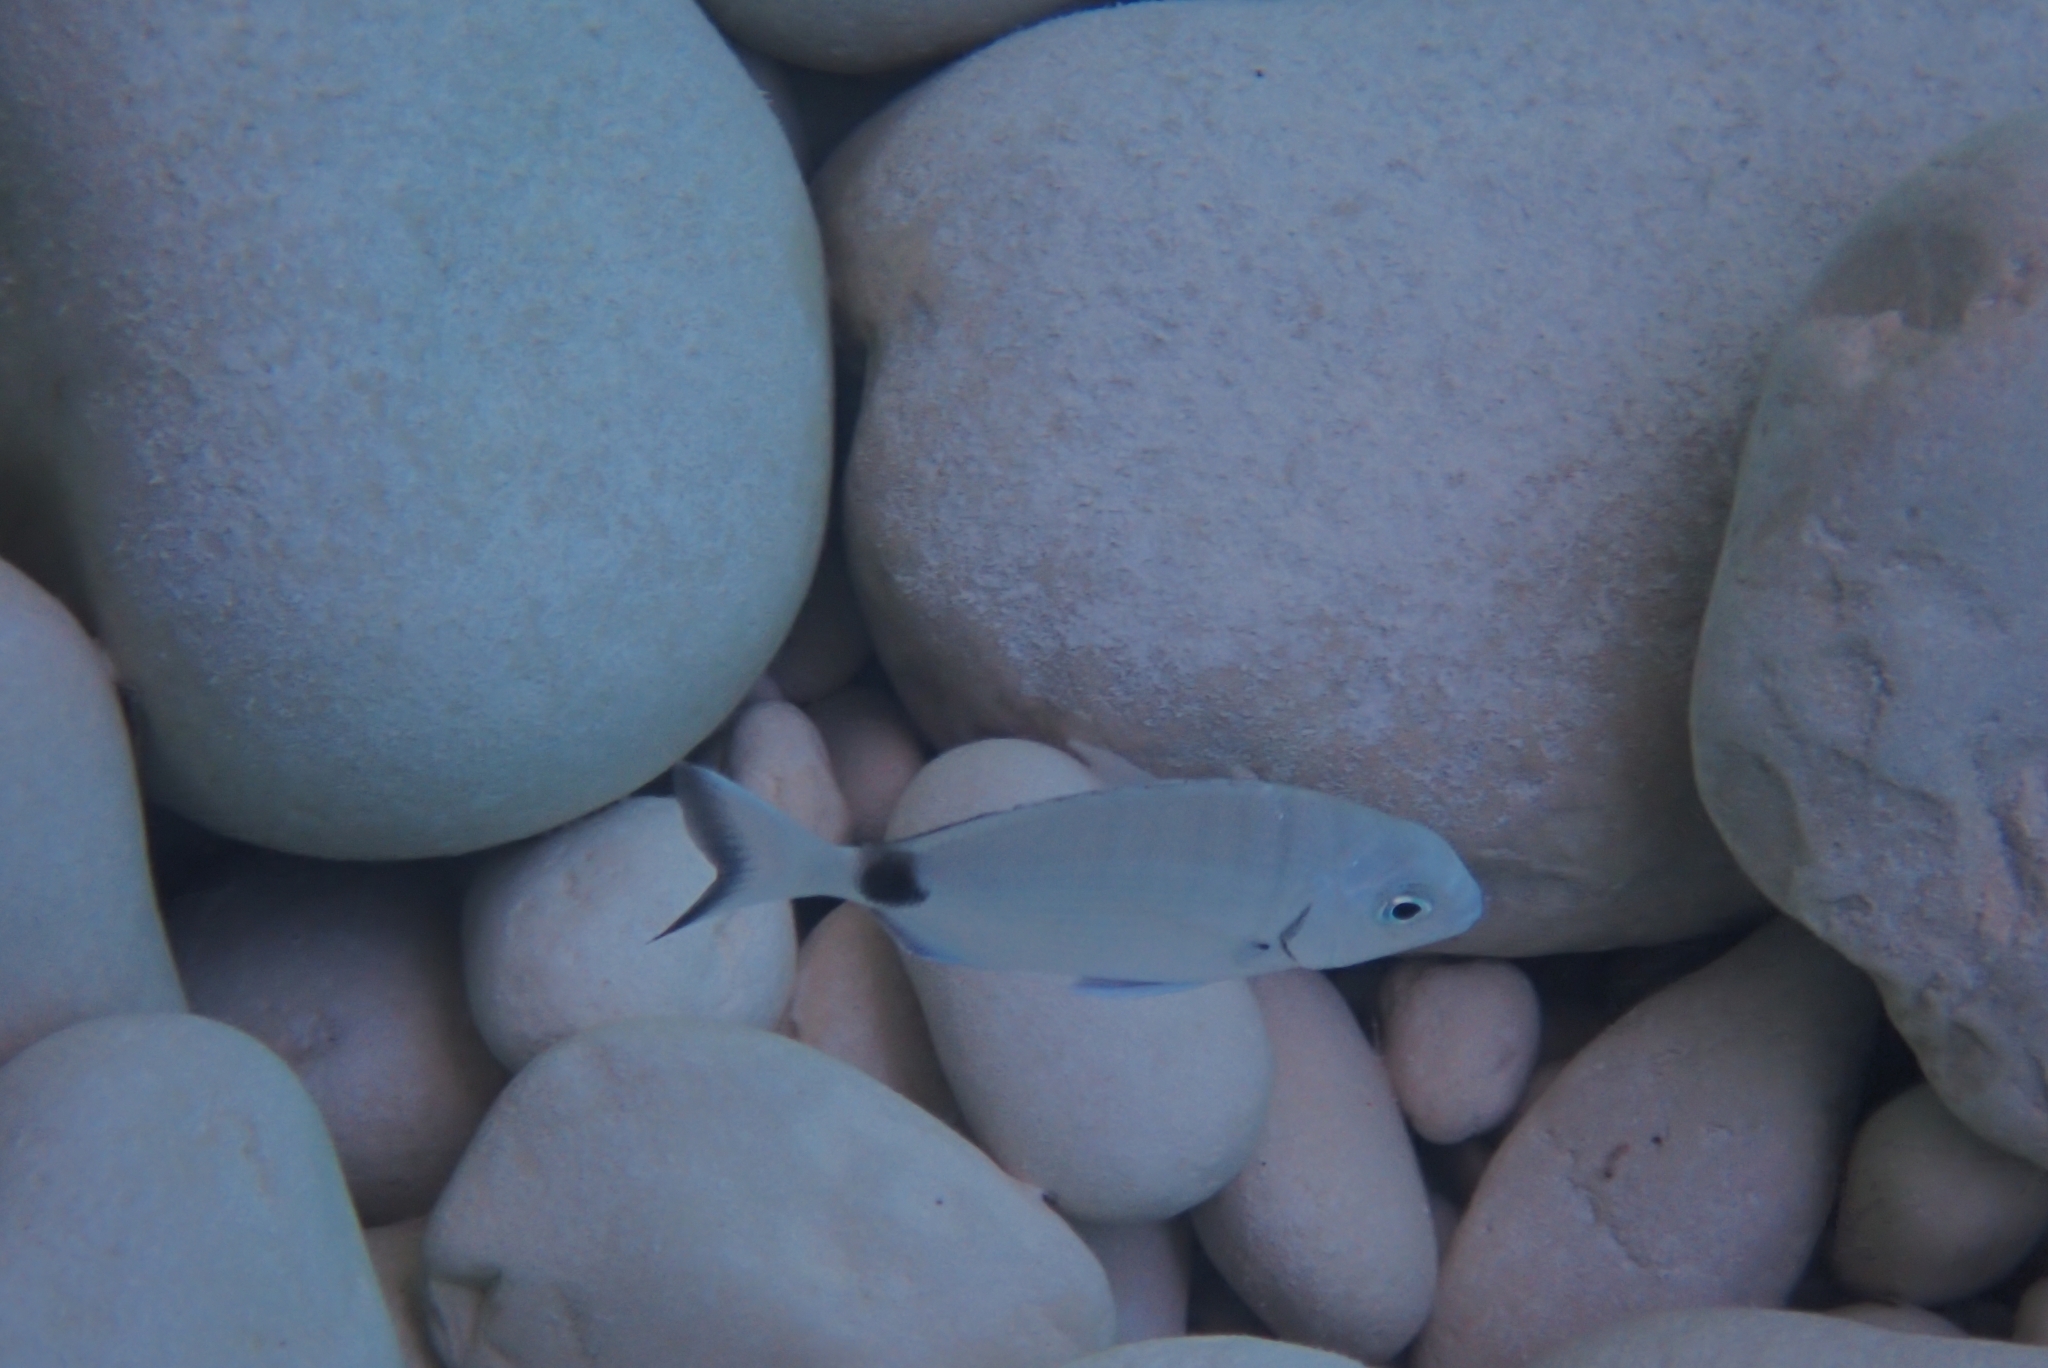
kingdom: Animalia
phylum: Chordata
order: Perciformes
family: Sparidae
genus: Diplodus
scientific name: Diplodus sargus
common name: White seabream
